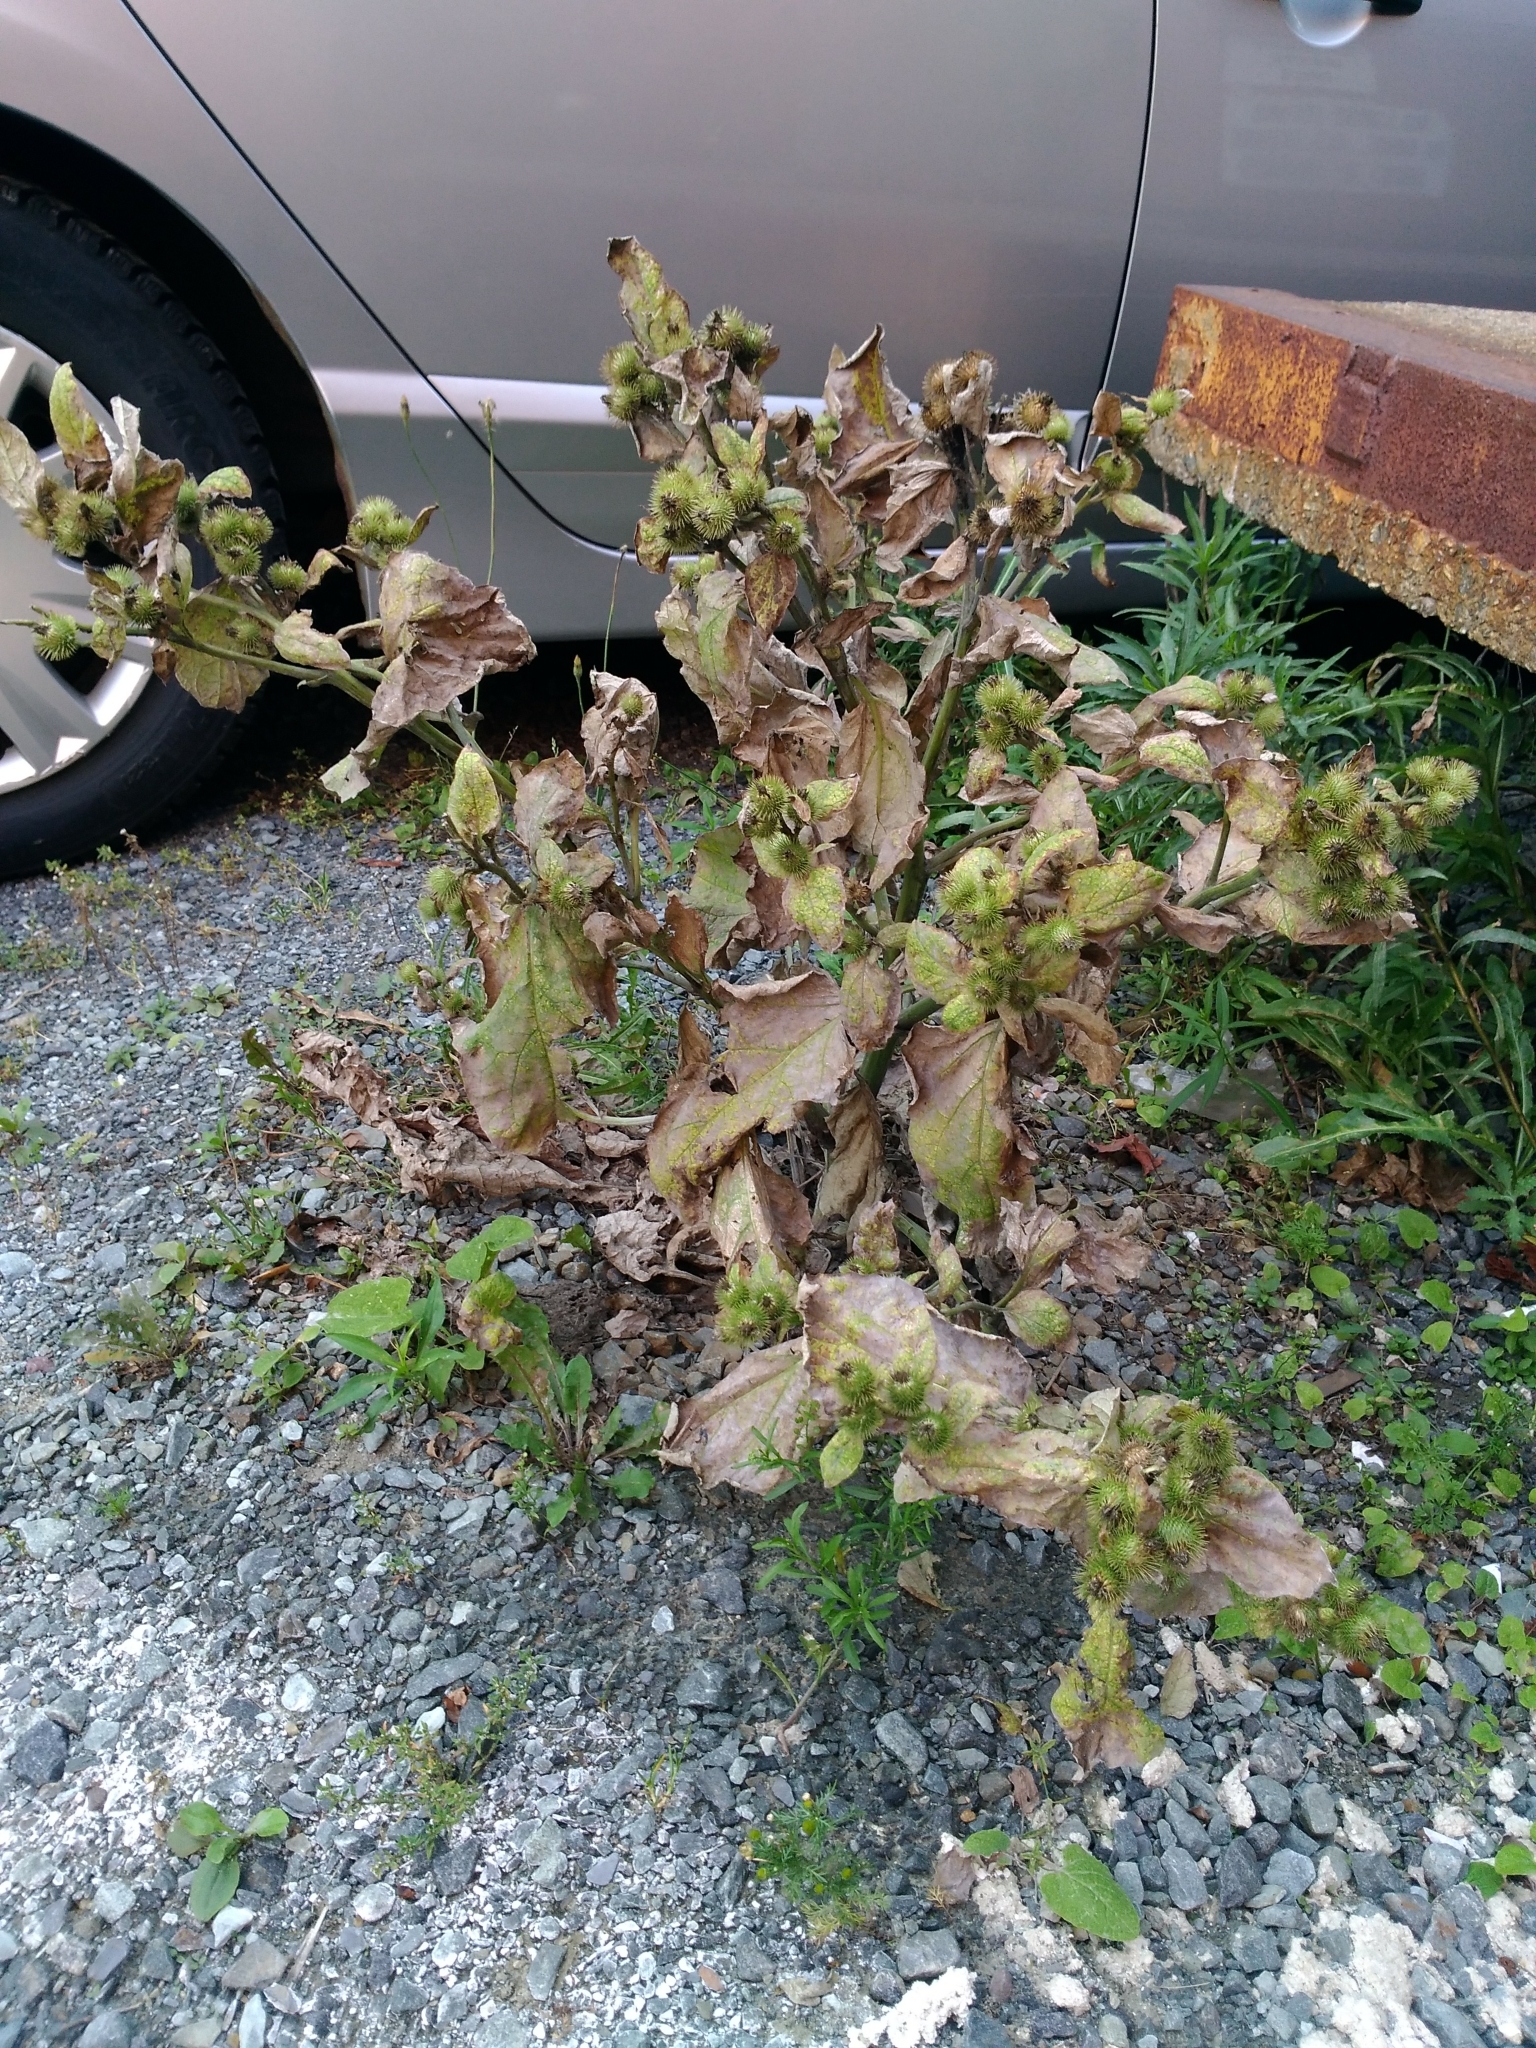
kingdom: Plantae
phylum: Tracheophyta
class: Magnoliopsida
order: Asterales
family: Asteraceae
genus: Arctium
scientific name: Arctium minus
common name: Lesser burdock
